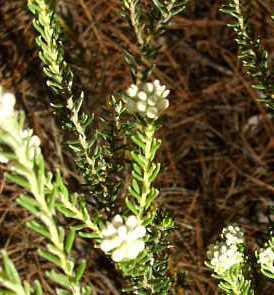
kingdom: Plantae
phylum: Tracheophyta
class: Magnoliopsida
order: Rosales
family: Rhamnaceae
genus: Phylica
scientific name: Phylica imberbis
